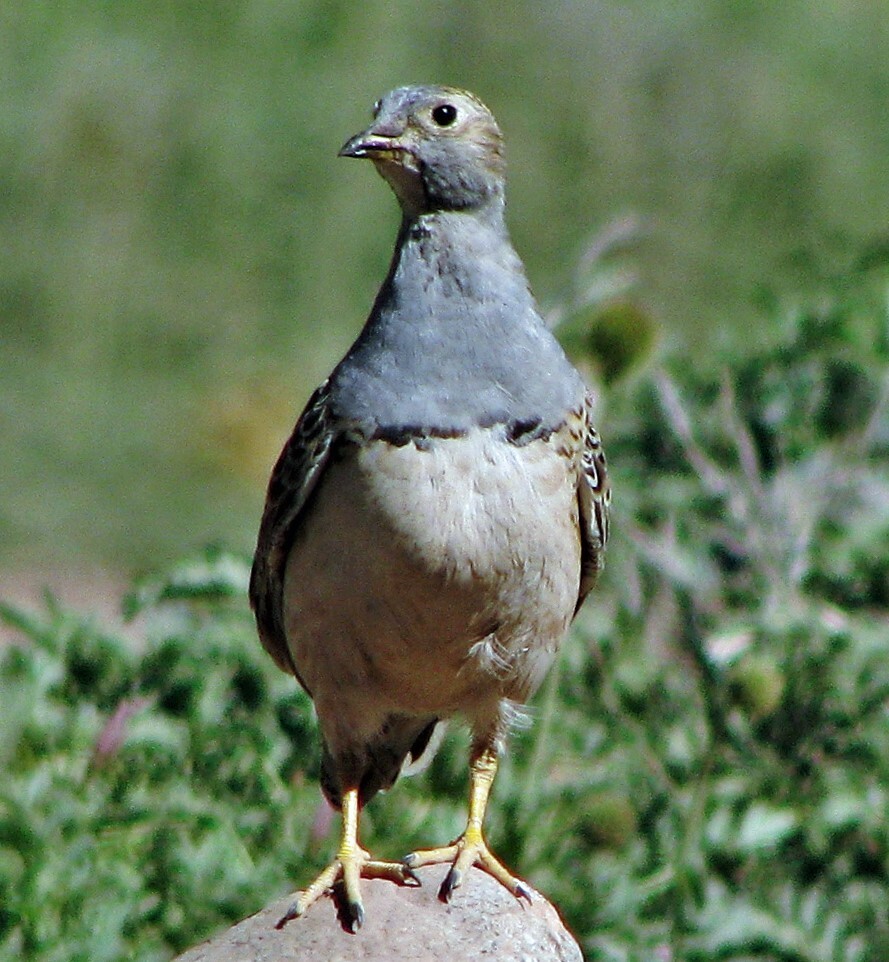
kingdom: Animalia
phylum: Chordata
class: Aves
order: Charadriiformes
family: Thinocoridae
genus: Thinocorus
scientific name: Thinocorus orbignyianus
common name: Grey-breasted seedsnipe
